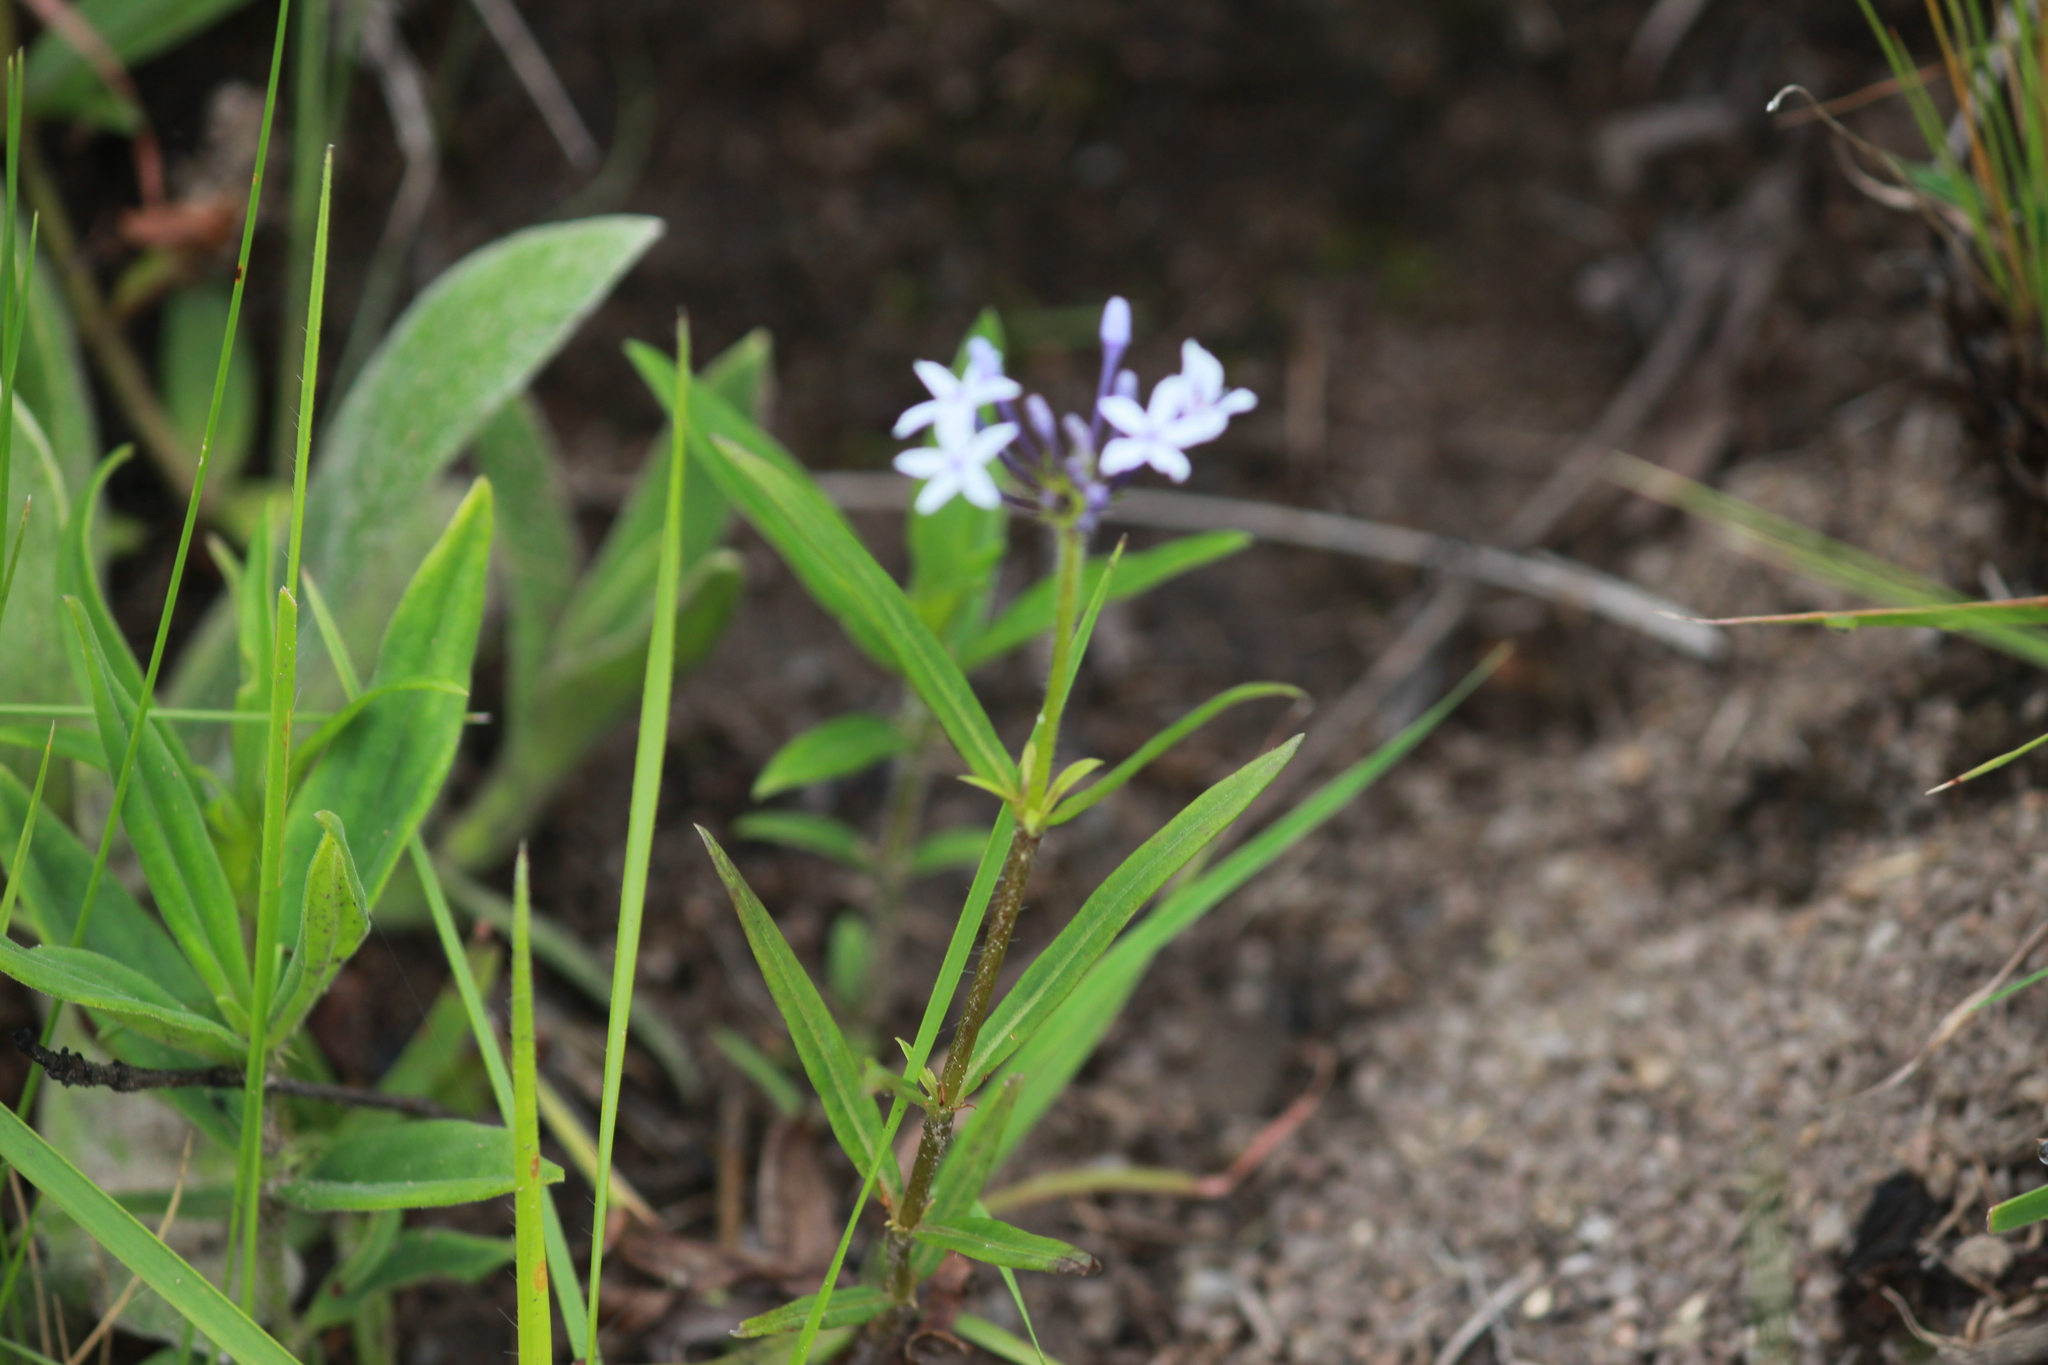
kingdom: Plantae
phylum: Tracheophyta
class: Magnoliopsida
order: Gentianales
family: Rubiaceae
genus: Pentanisia
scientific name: Pentanisia angustifolia
